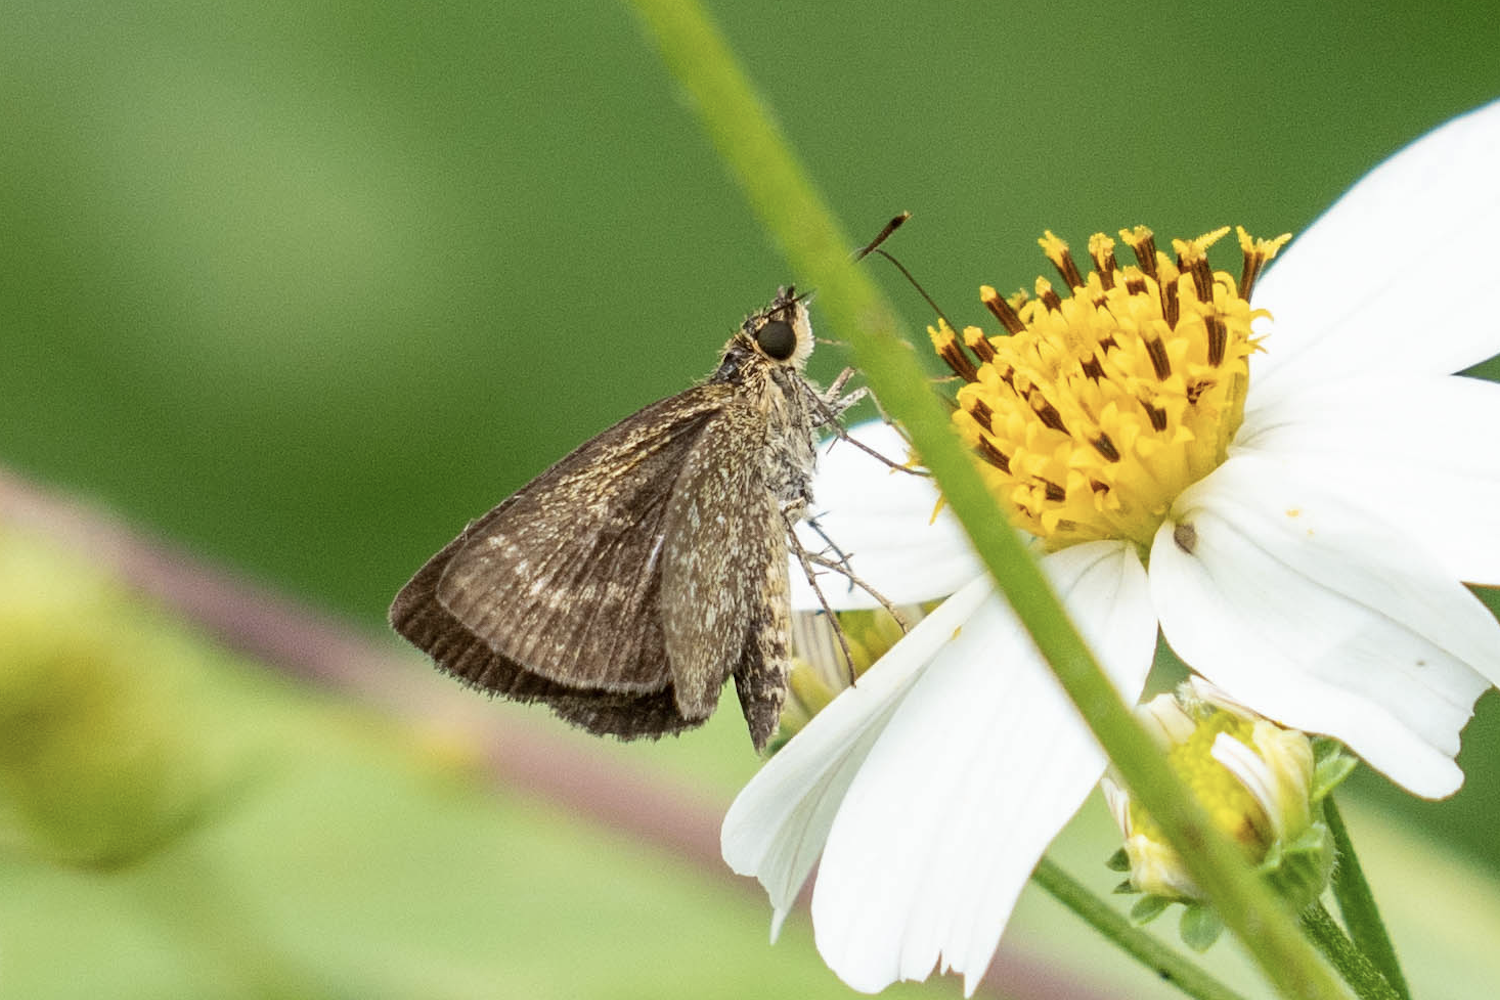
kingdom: Animalia
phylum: Arthropoda
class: Insecta
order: Lepidoptera
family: Hesperiidae
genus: Aeromachus
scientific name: Aeromachus jhora
